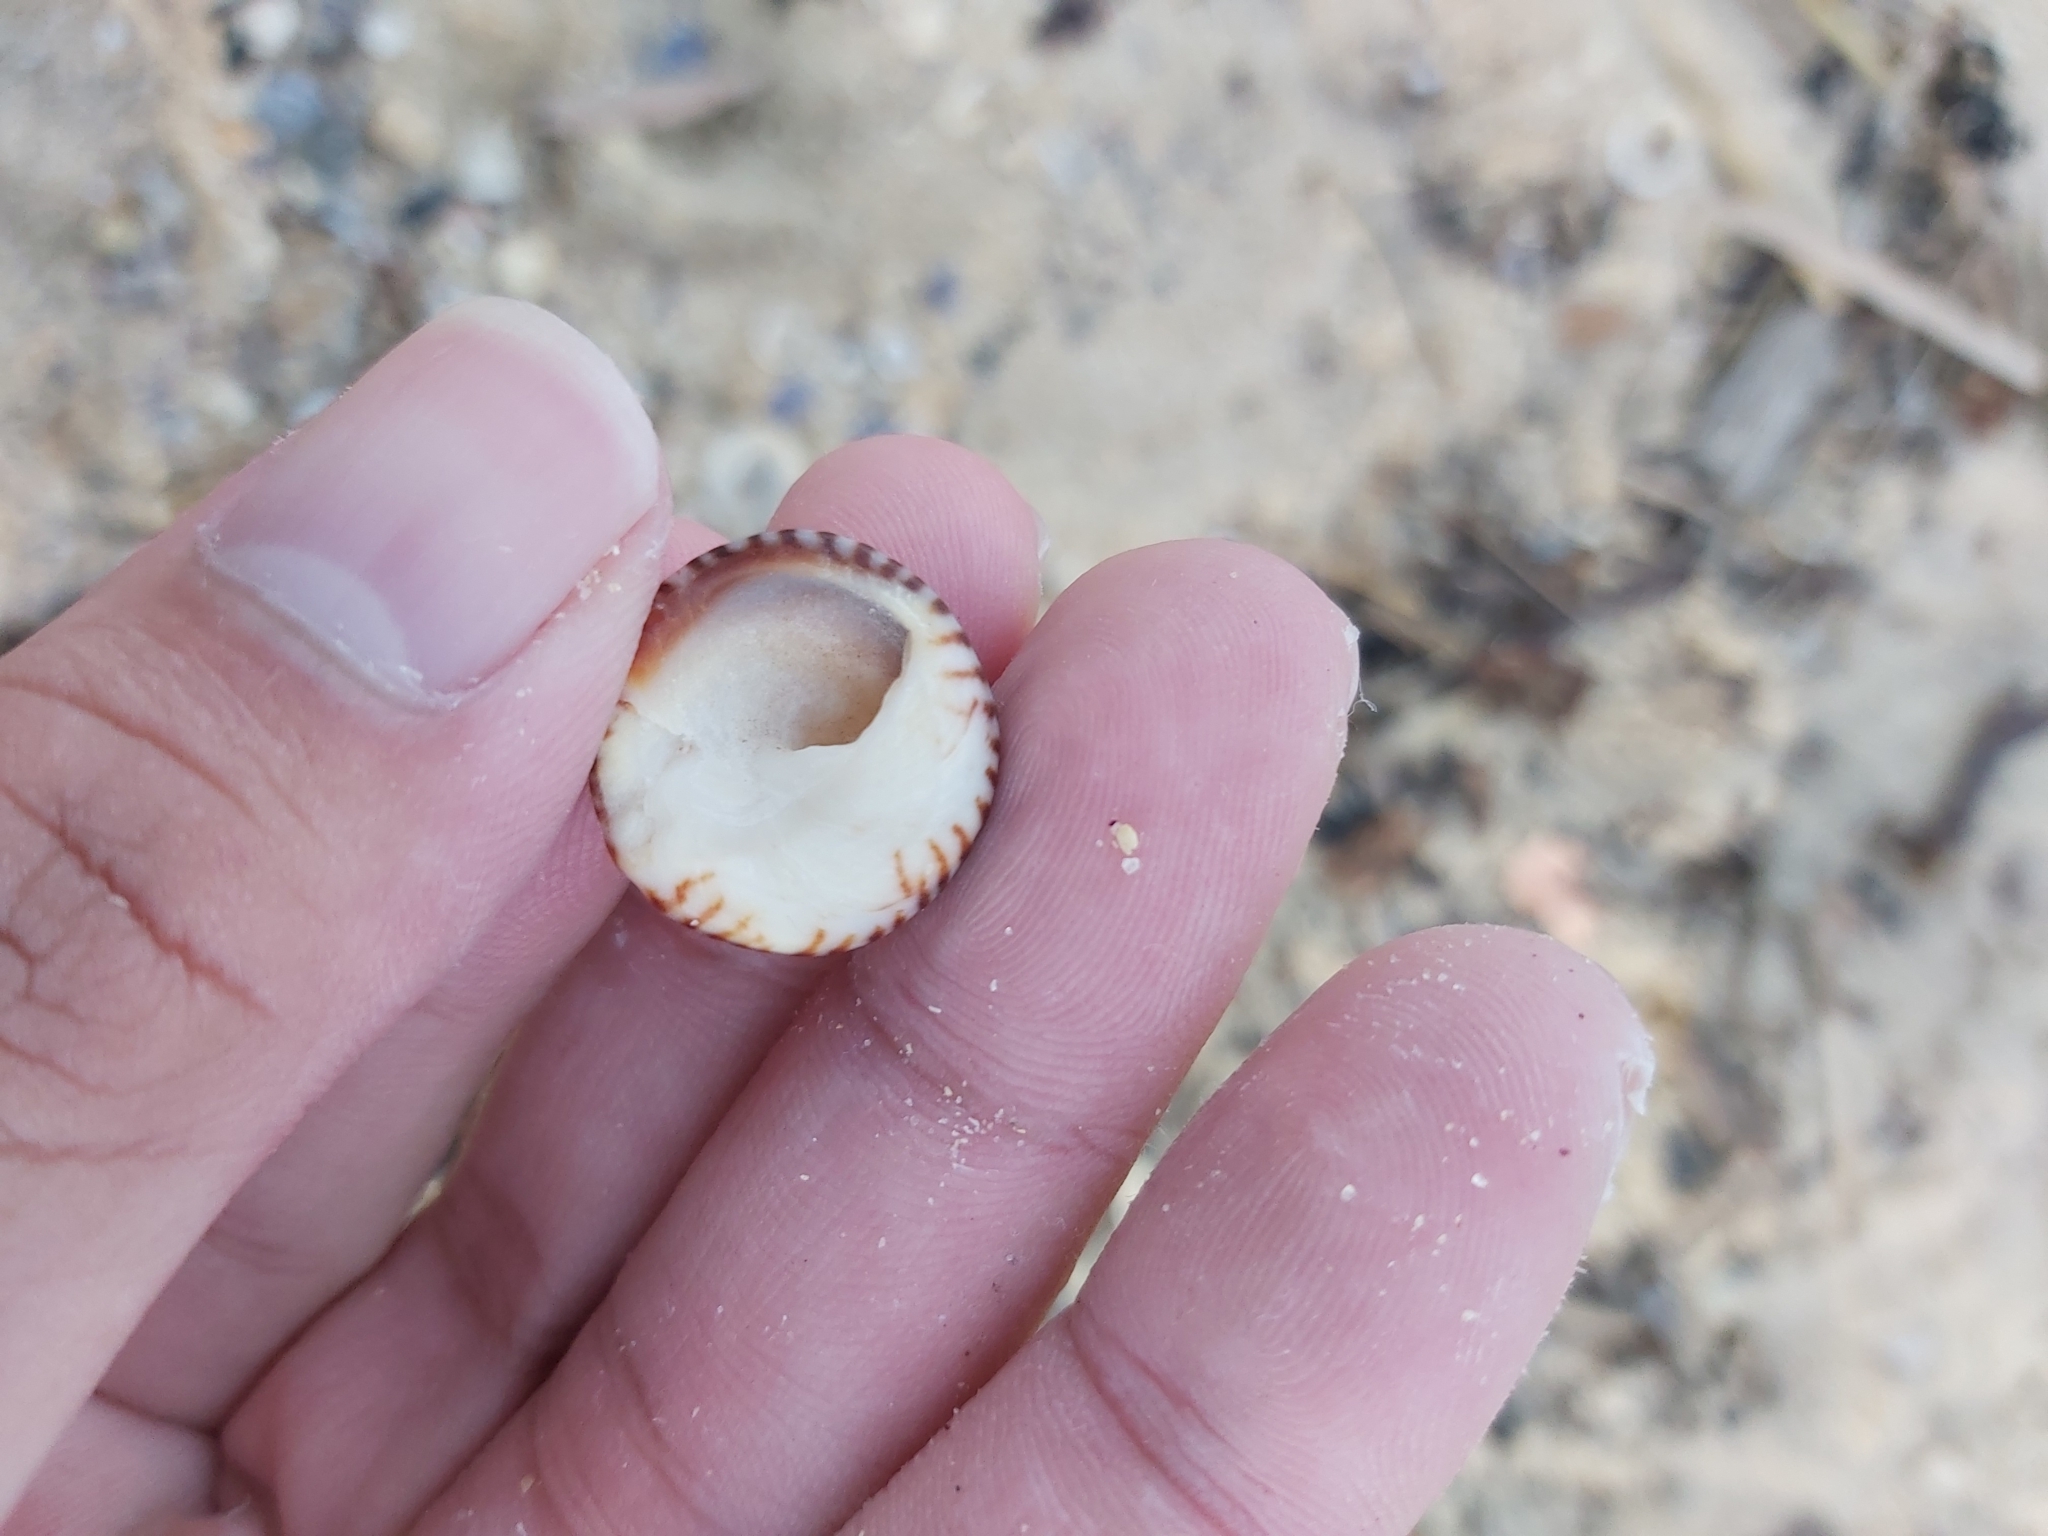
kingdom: Animalia
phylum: Mollusca
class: Gastropoda
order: Littorinimorpha
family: Littorinidae
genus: Bembicium
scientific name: Bembicium nanum
